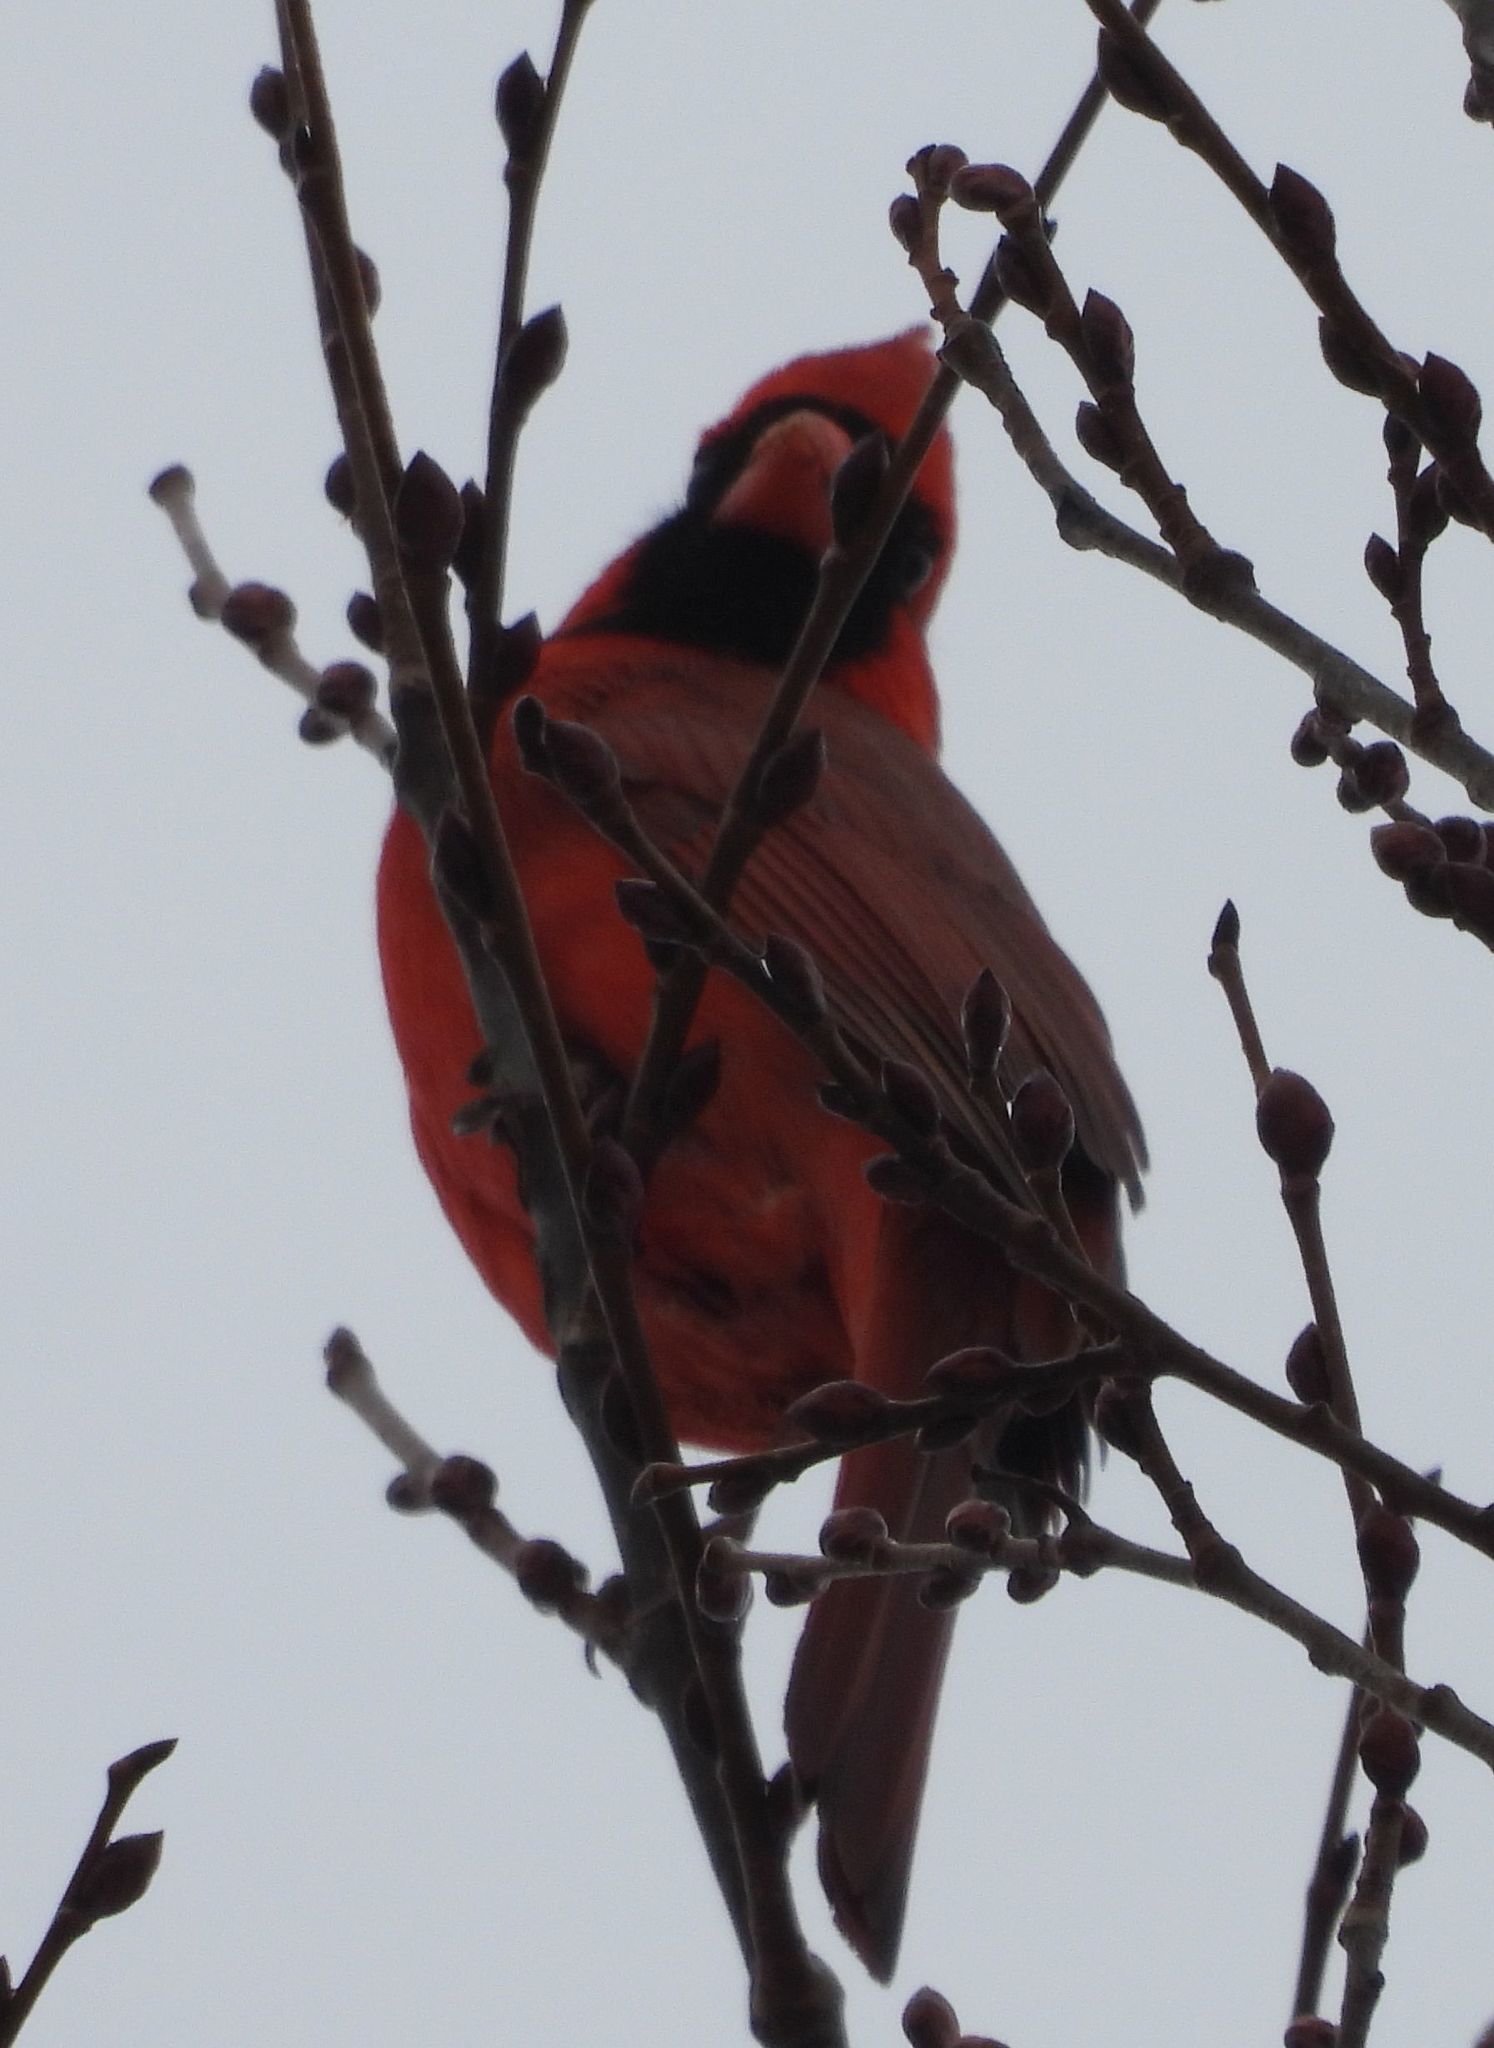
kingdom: Animalia
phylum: Chordata
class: Aves
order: Passeriformes
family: Cardinalidae
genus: Cardinalis
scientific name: Cardinalis cardinalis
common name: Northern cardinal
